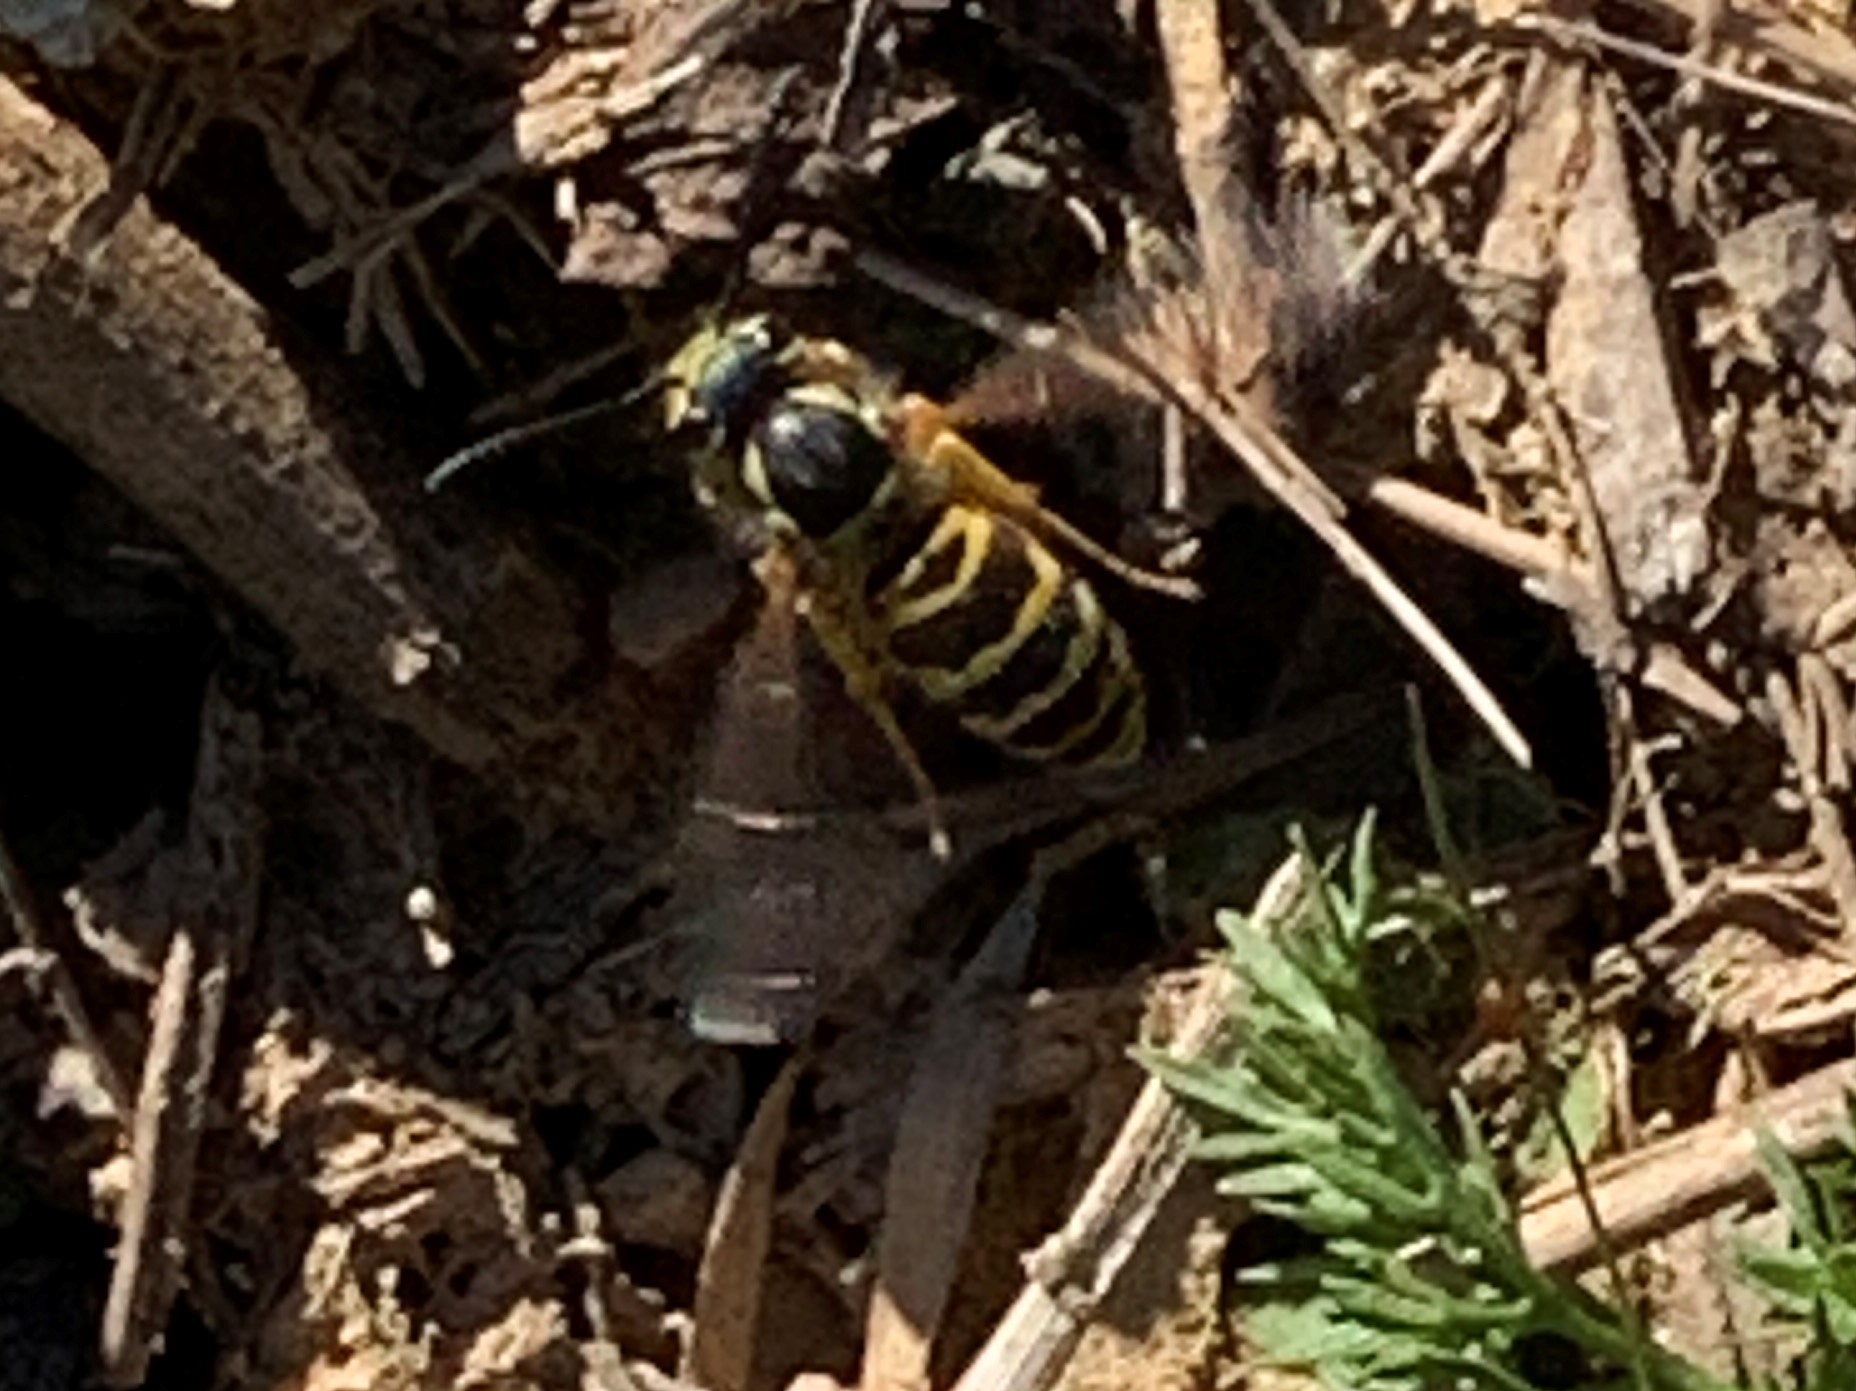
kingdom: Animalia
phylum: Arthropoda
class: Insecta
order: Hymenoptera
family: Vespidae
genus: Vespula
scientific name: Vespula maculifrons
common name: Eastern yellowjacket
